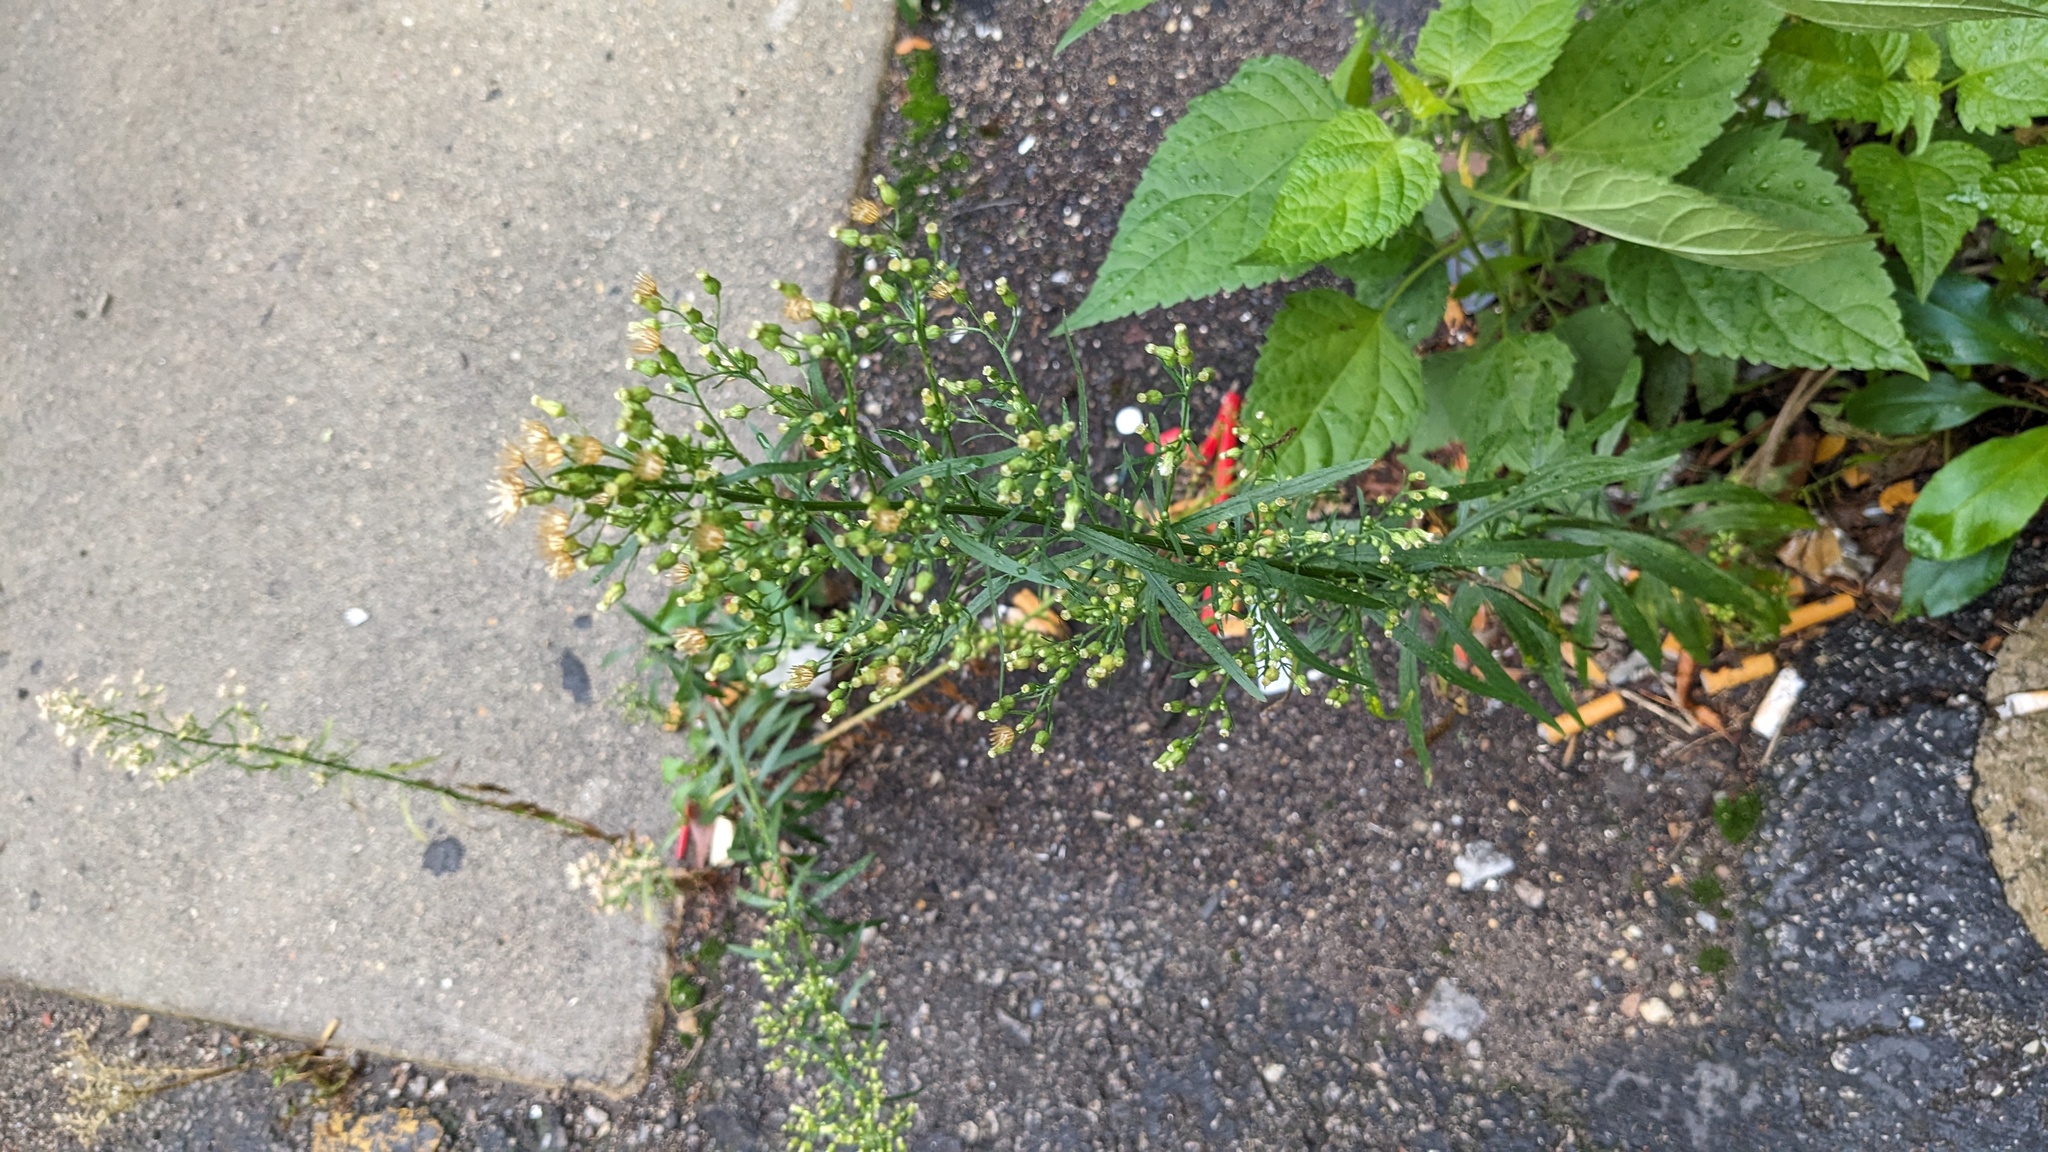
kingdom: Plantae
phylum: Tracheophyta
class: Magnoliopsida
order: Asterales
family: Asteraceae
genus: Erigeron
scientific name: Erigeron canadensis
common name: Canadian fleabane
